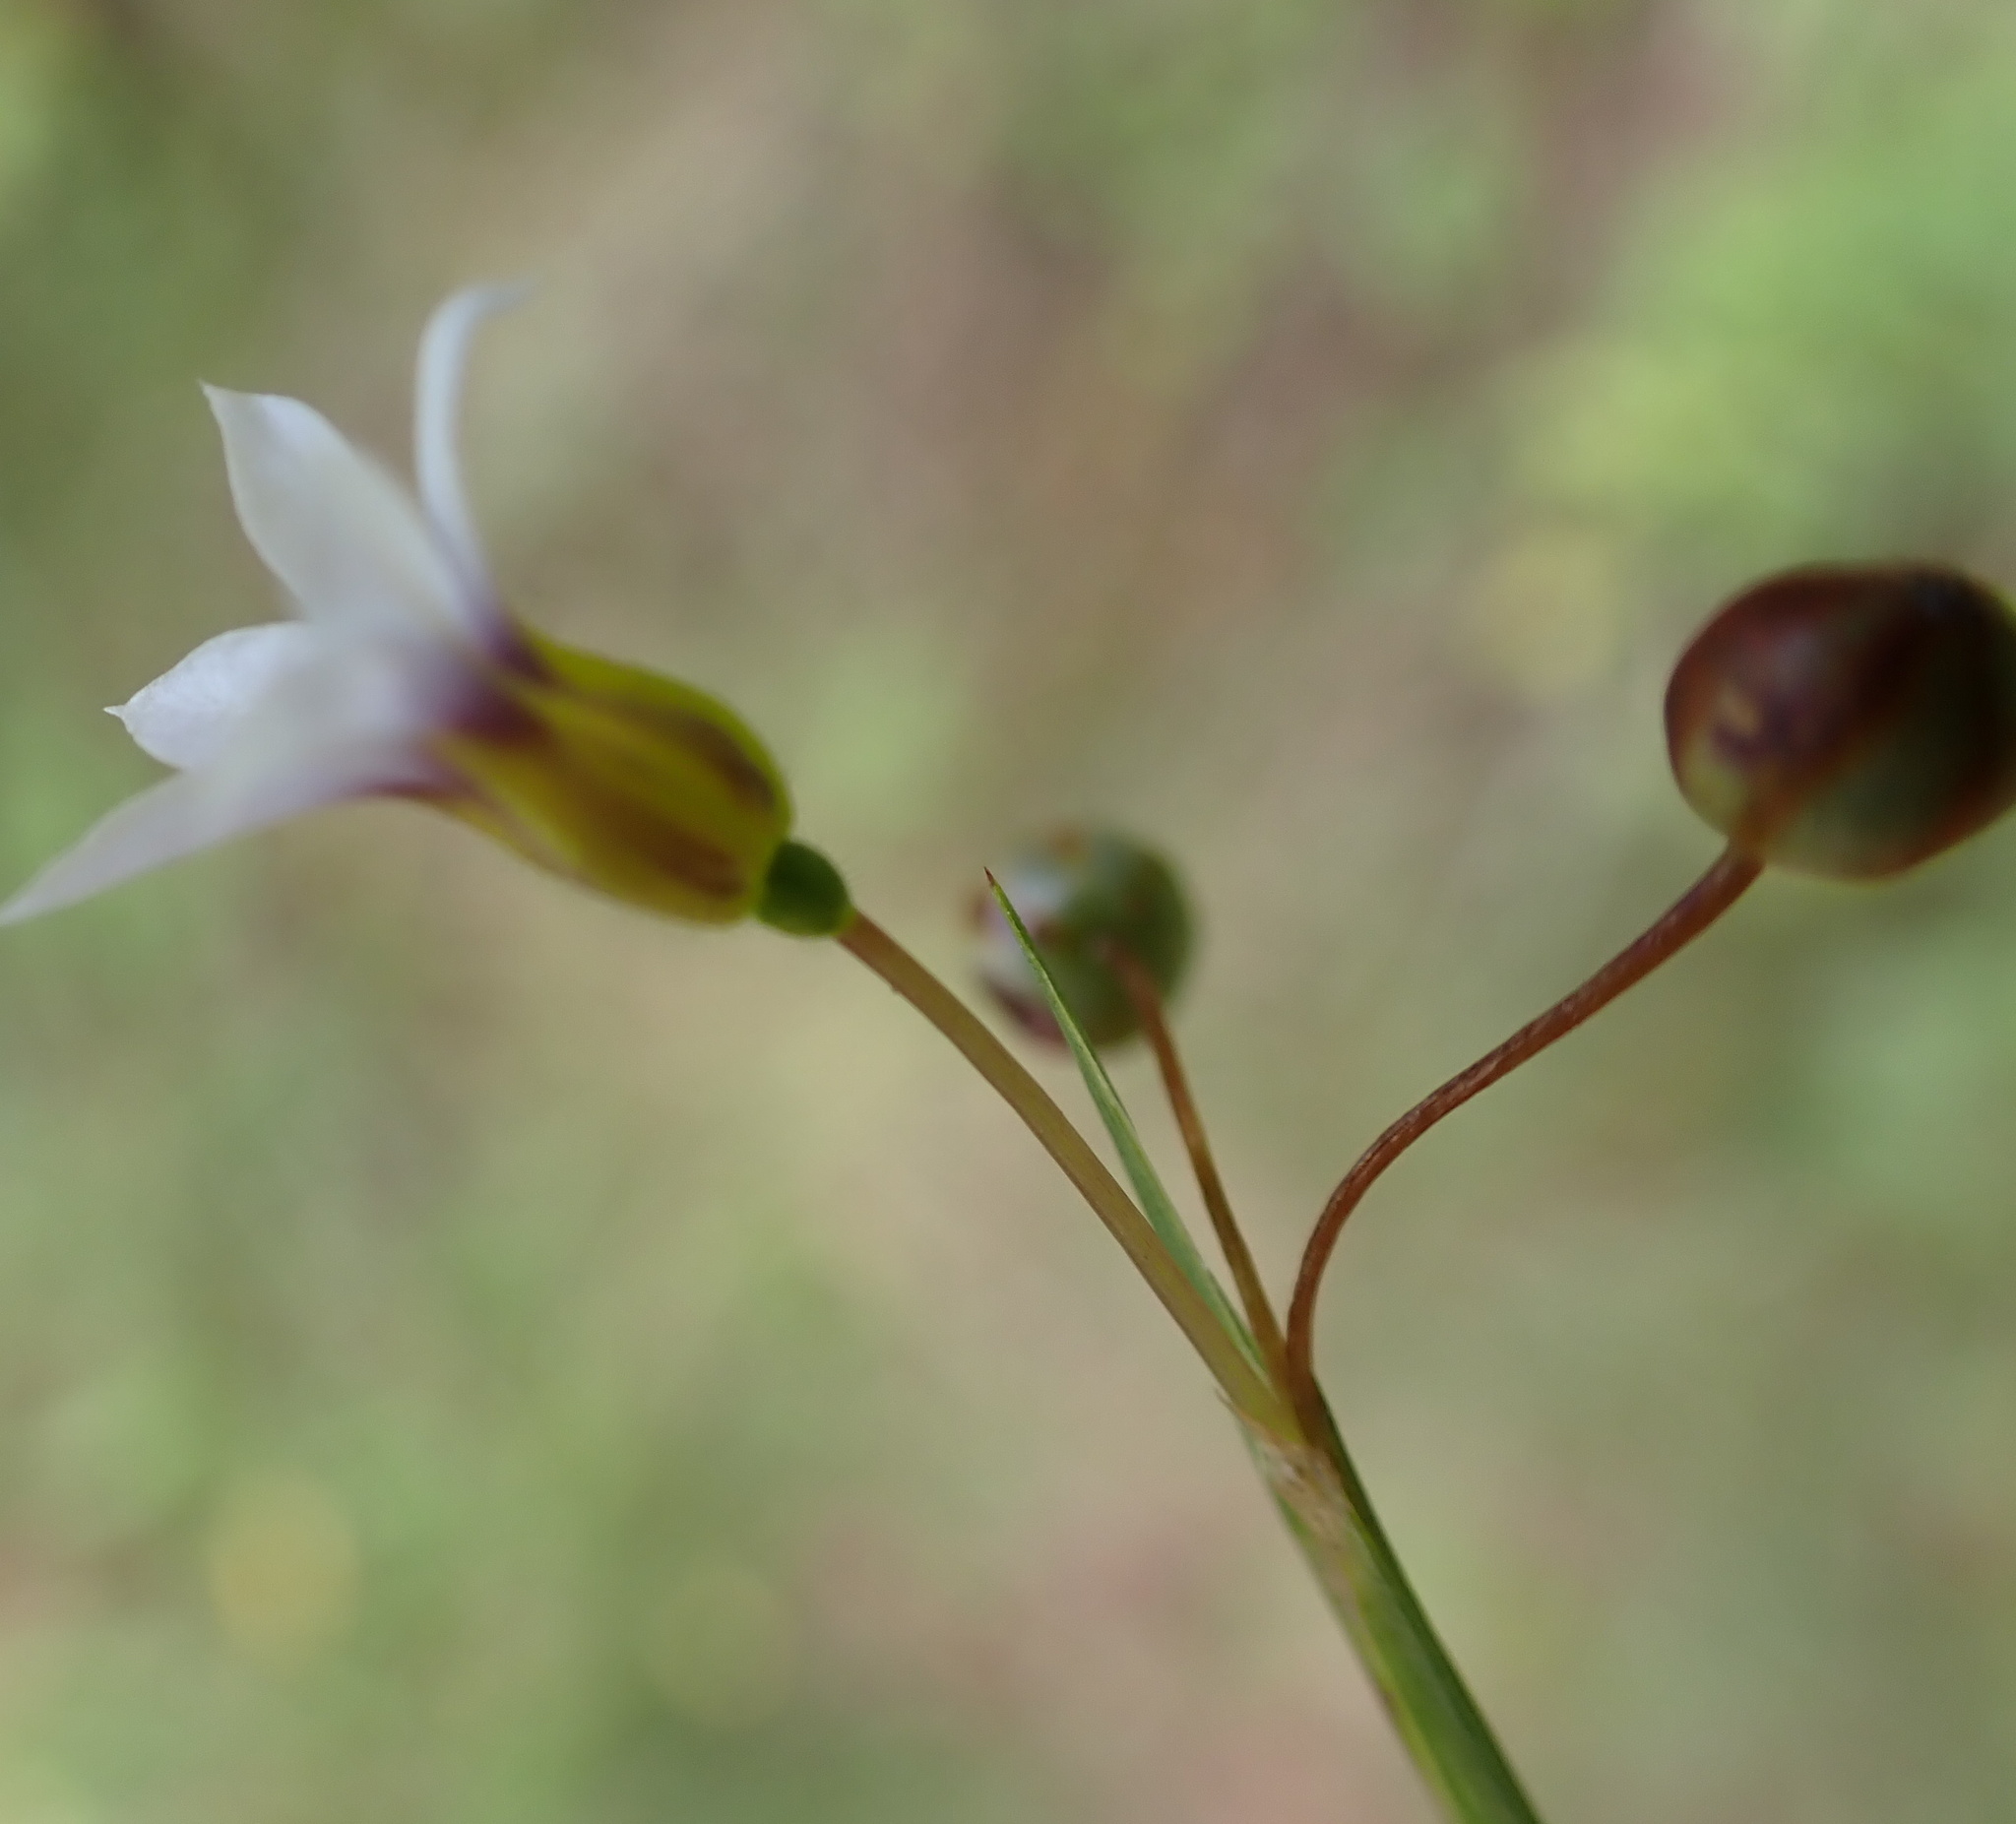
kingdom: Plantae
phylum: Tracheophyta
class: Liliopsida
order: Asparagales
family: Iridaceae
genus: Sisyrinchium
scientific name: Sisyrinchium micranthum
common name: Bermuda pigroot
